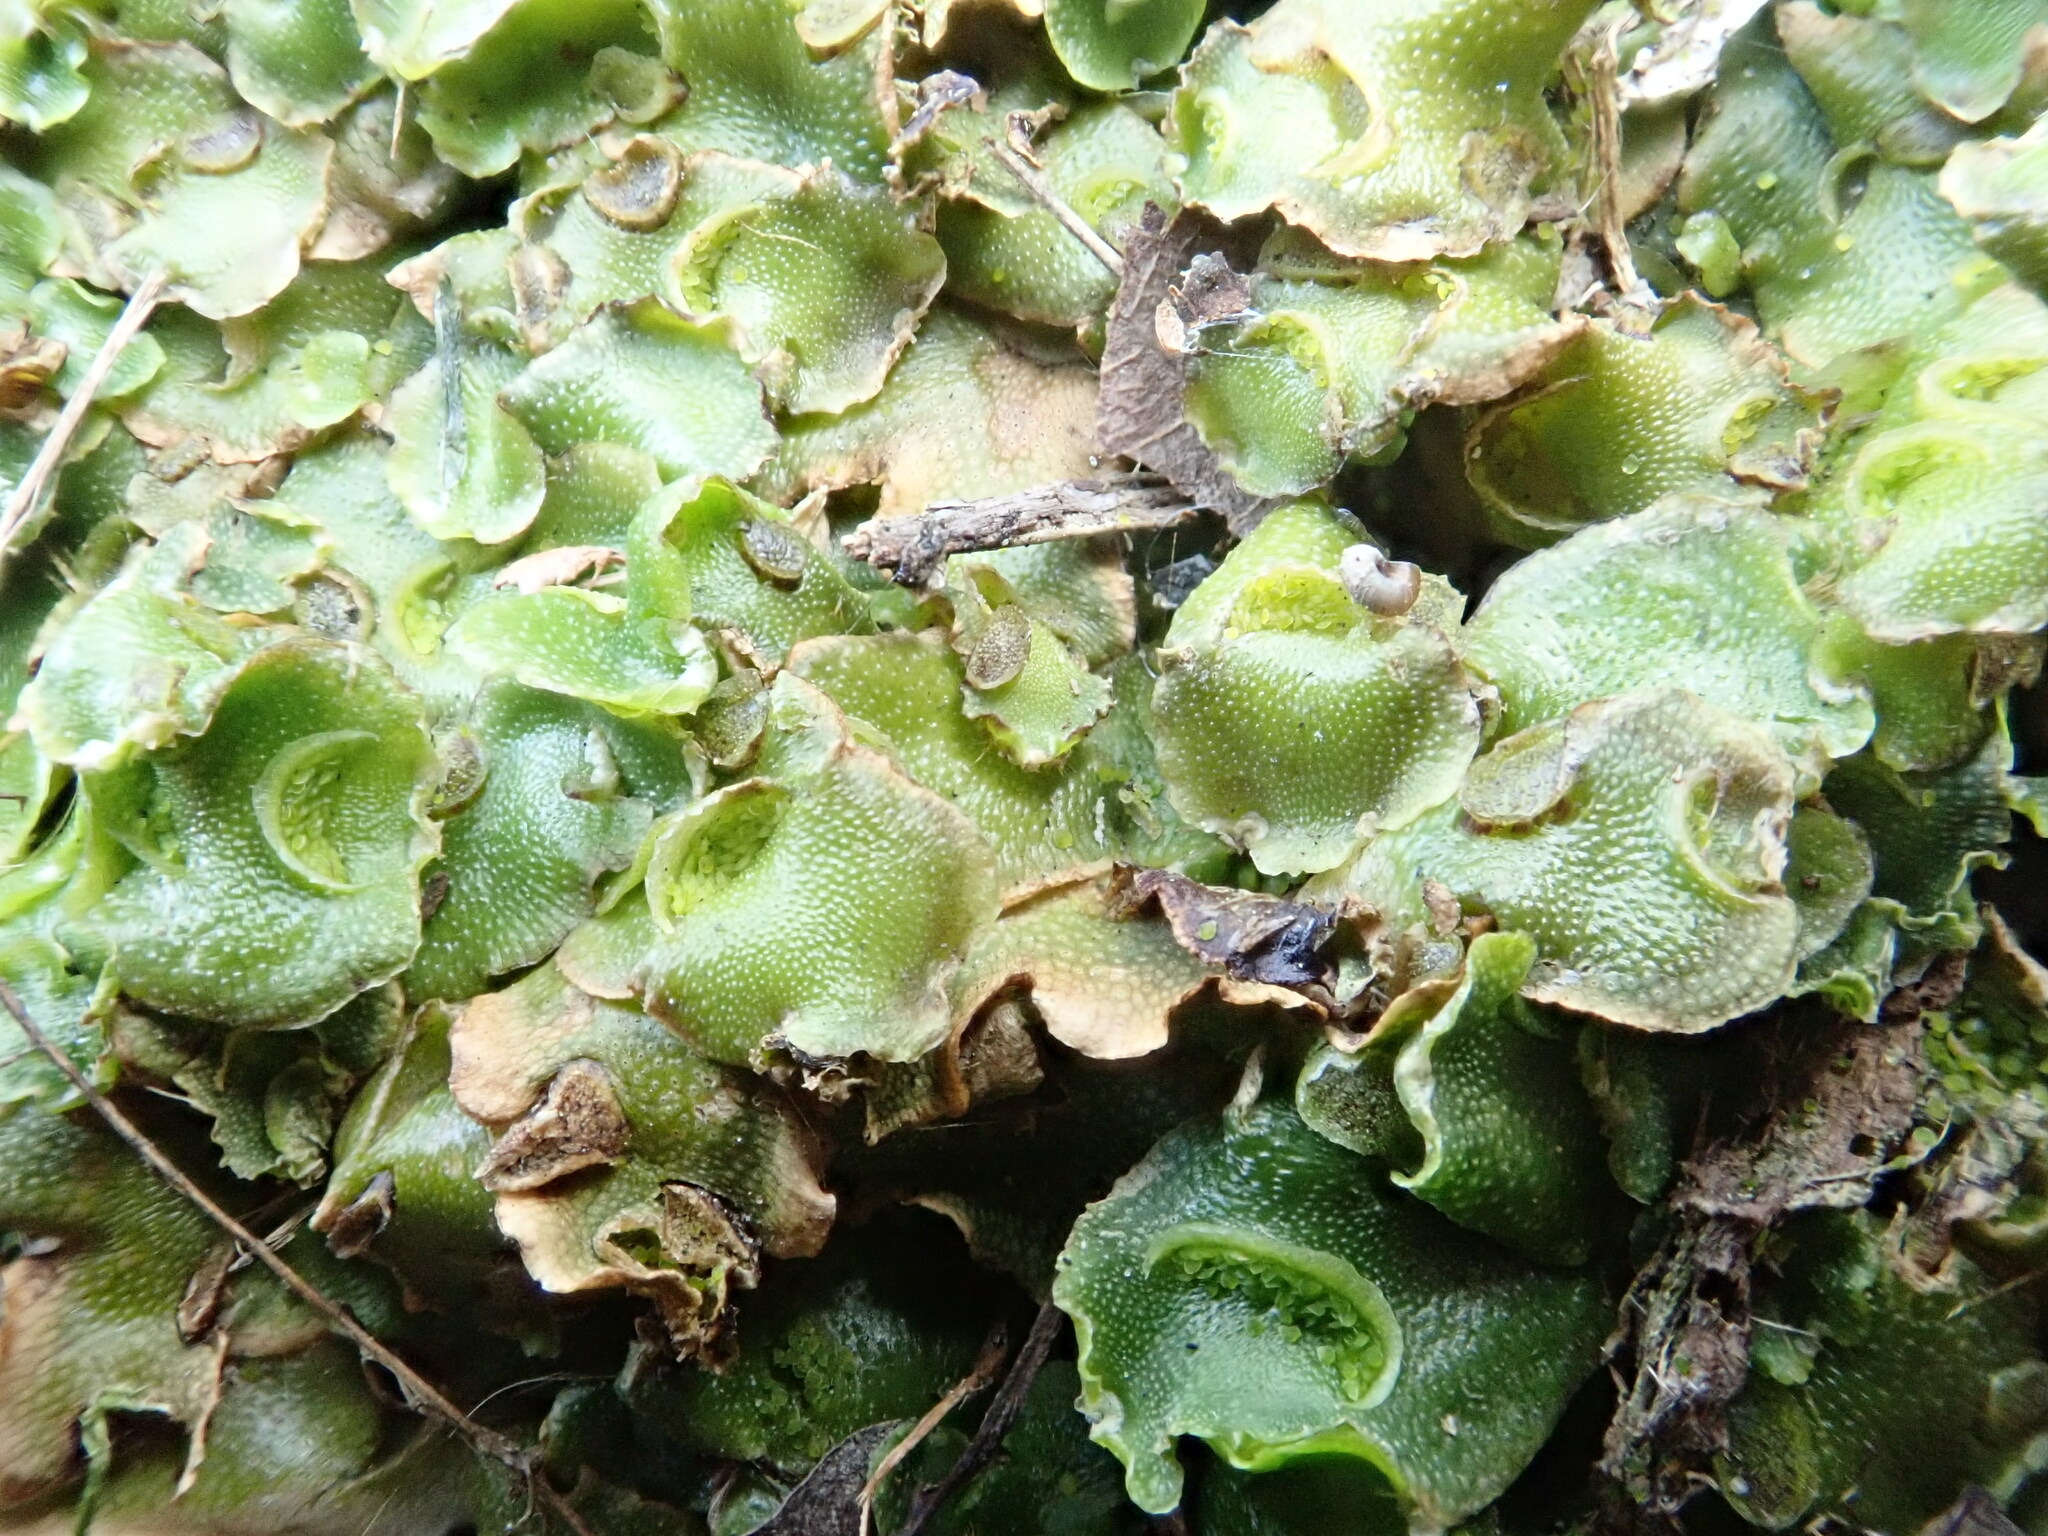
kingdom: Plantae
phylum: Marchantiophyta
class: Marchantiopsida
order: Lunulariales
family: Lunulariaceae
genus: Lunularia
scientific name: Lunularia cruciata
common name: Crescent-cup liverwort
